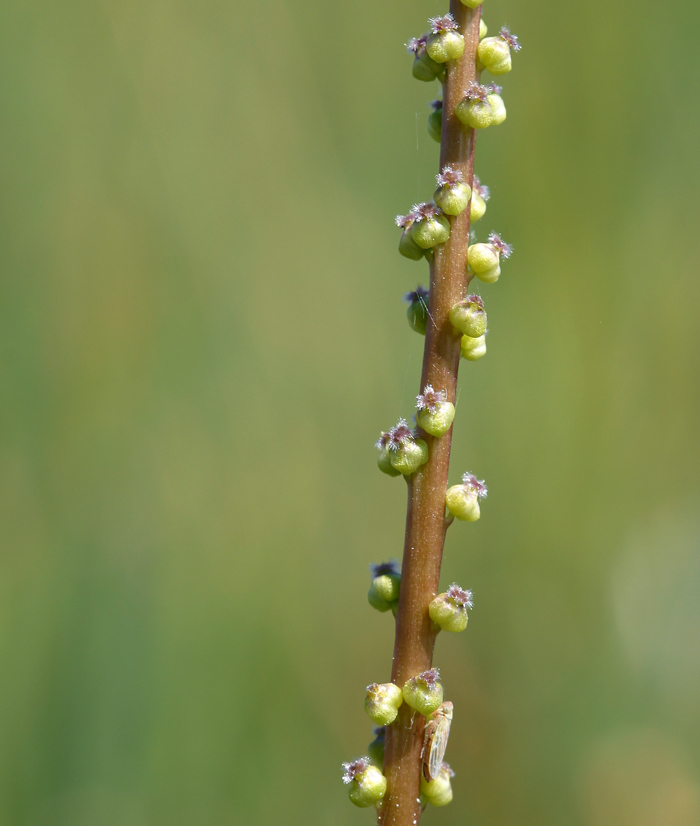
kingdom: Plantae
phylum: Tracheophyta
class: Liliopsida
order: Alismatales
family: Juncaginaceae
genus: Triglochin
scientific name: Triglochin maritima
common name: Sea arrowgrass
